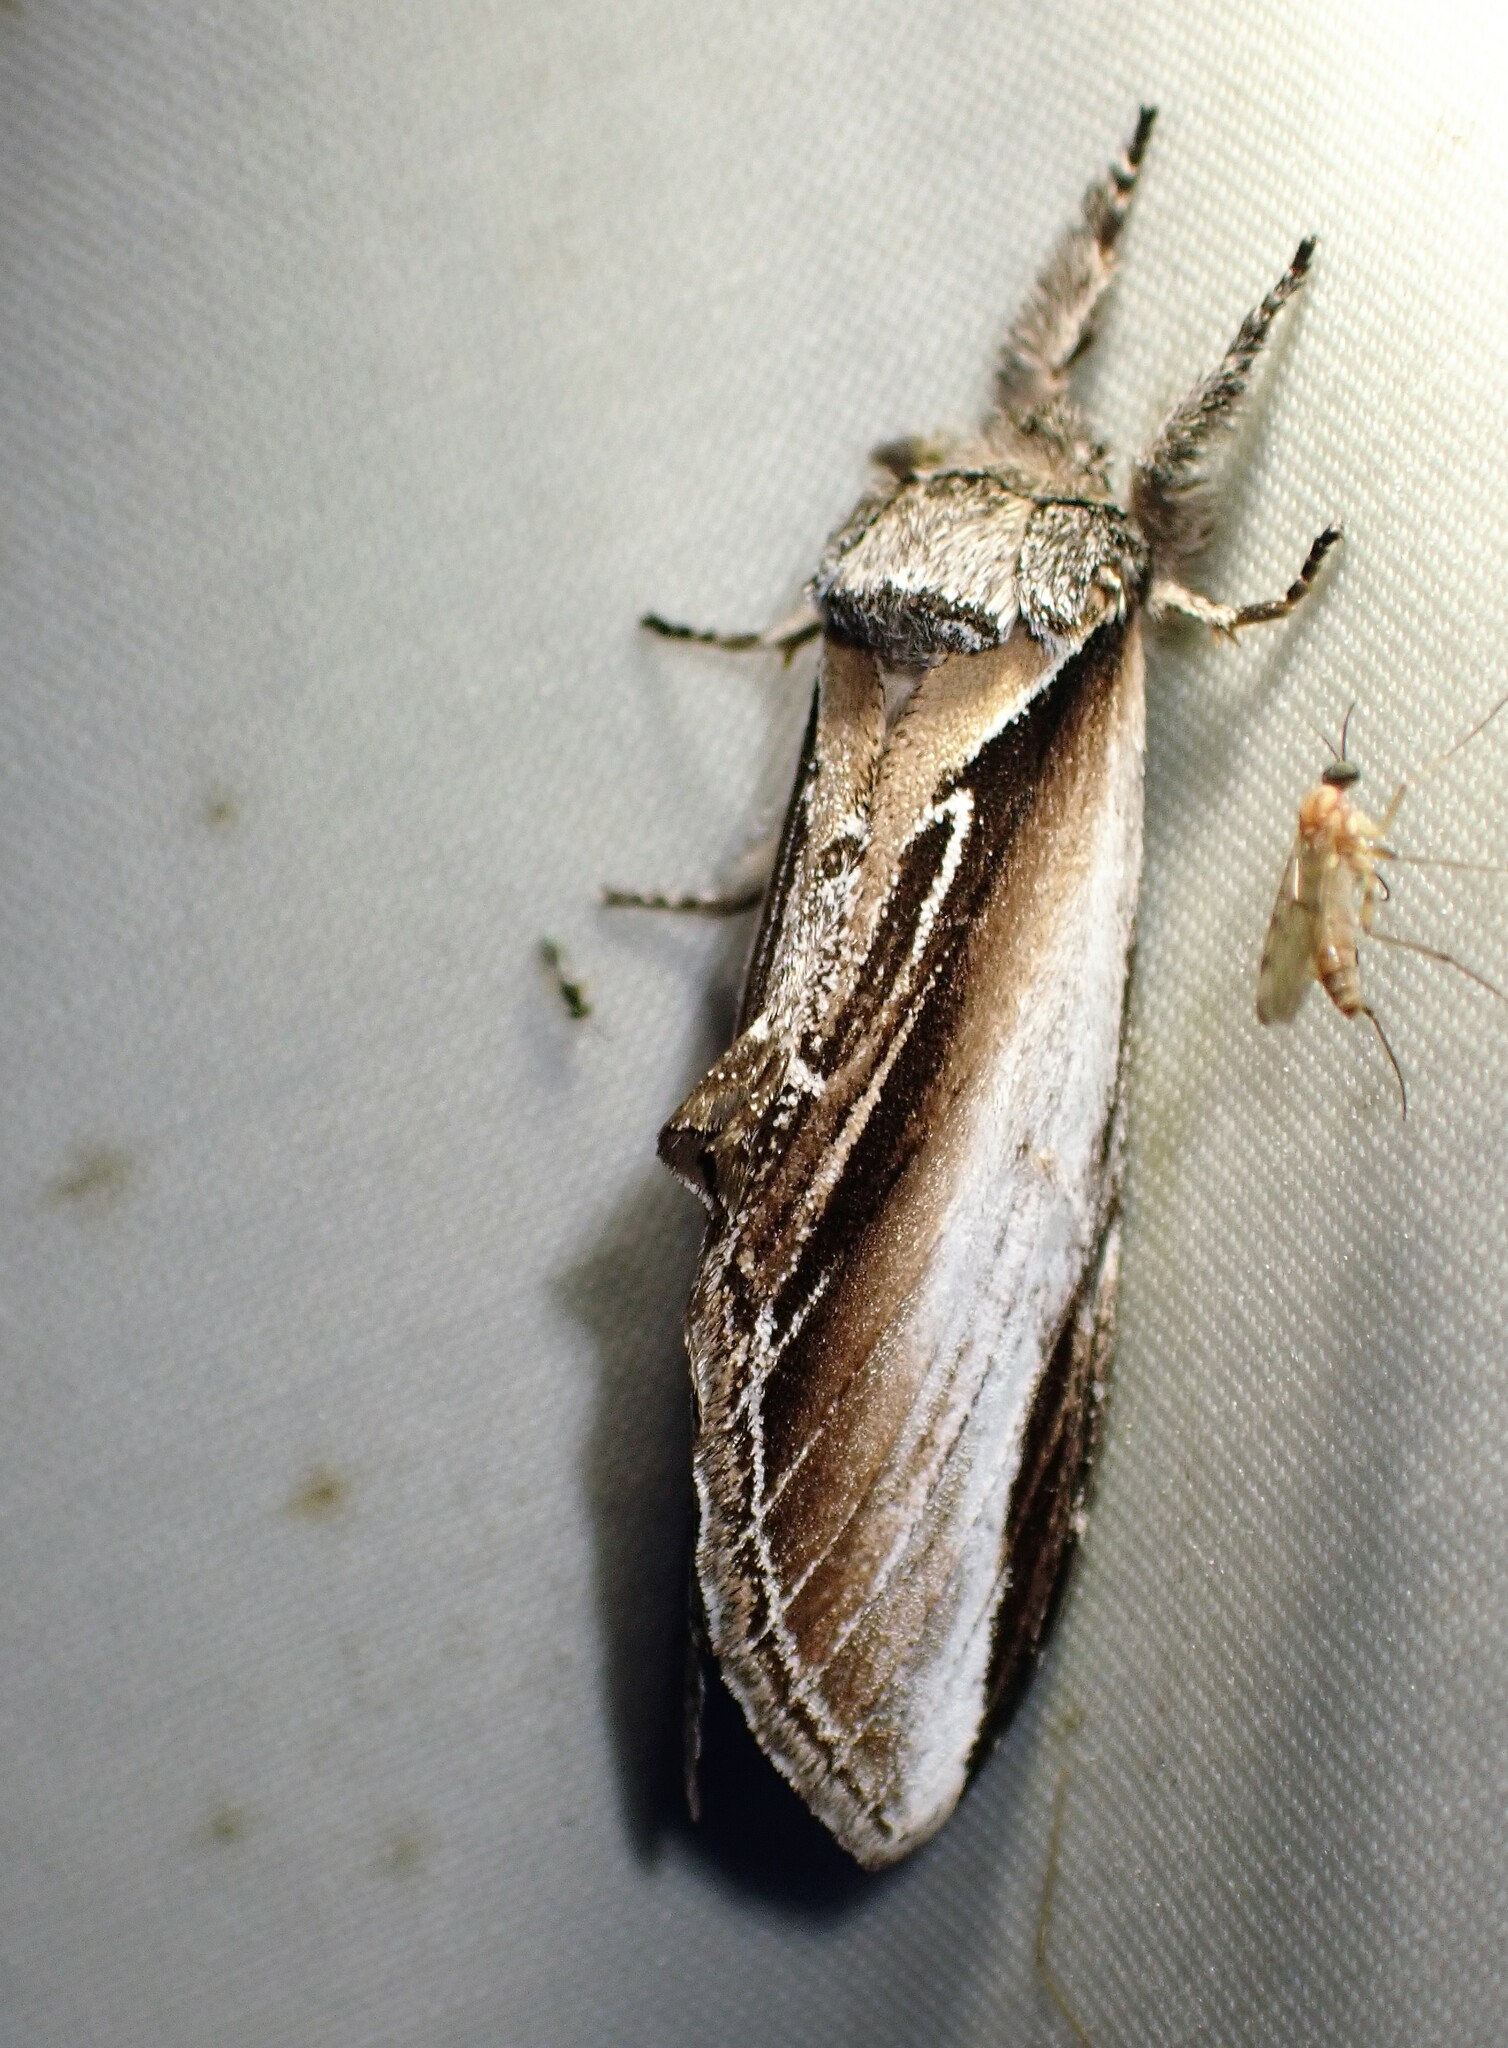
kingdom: Animalia
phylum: Arthropoda
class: Insecta
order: Lepidoptera
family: Notodontidae
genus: Pheosia
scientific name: Pheosia rimosa
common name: Black-rimmed prominent
